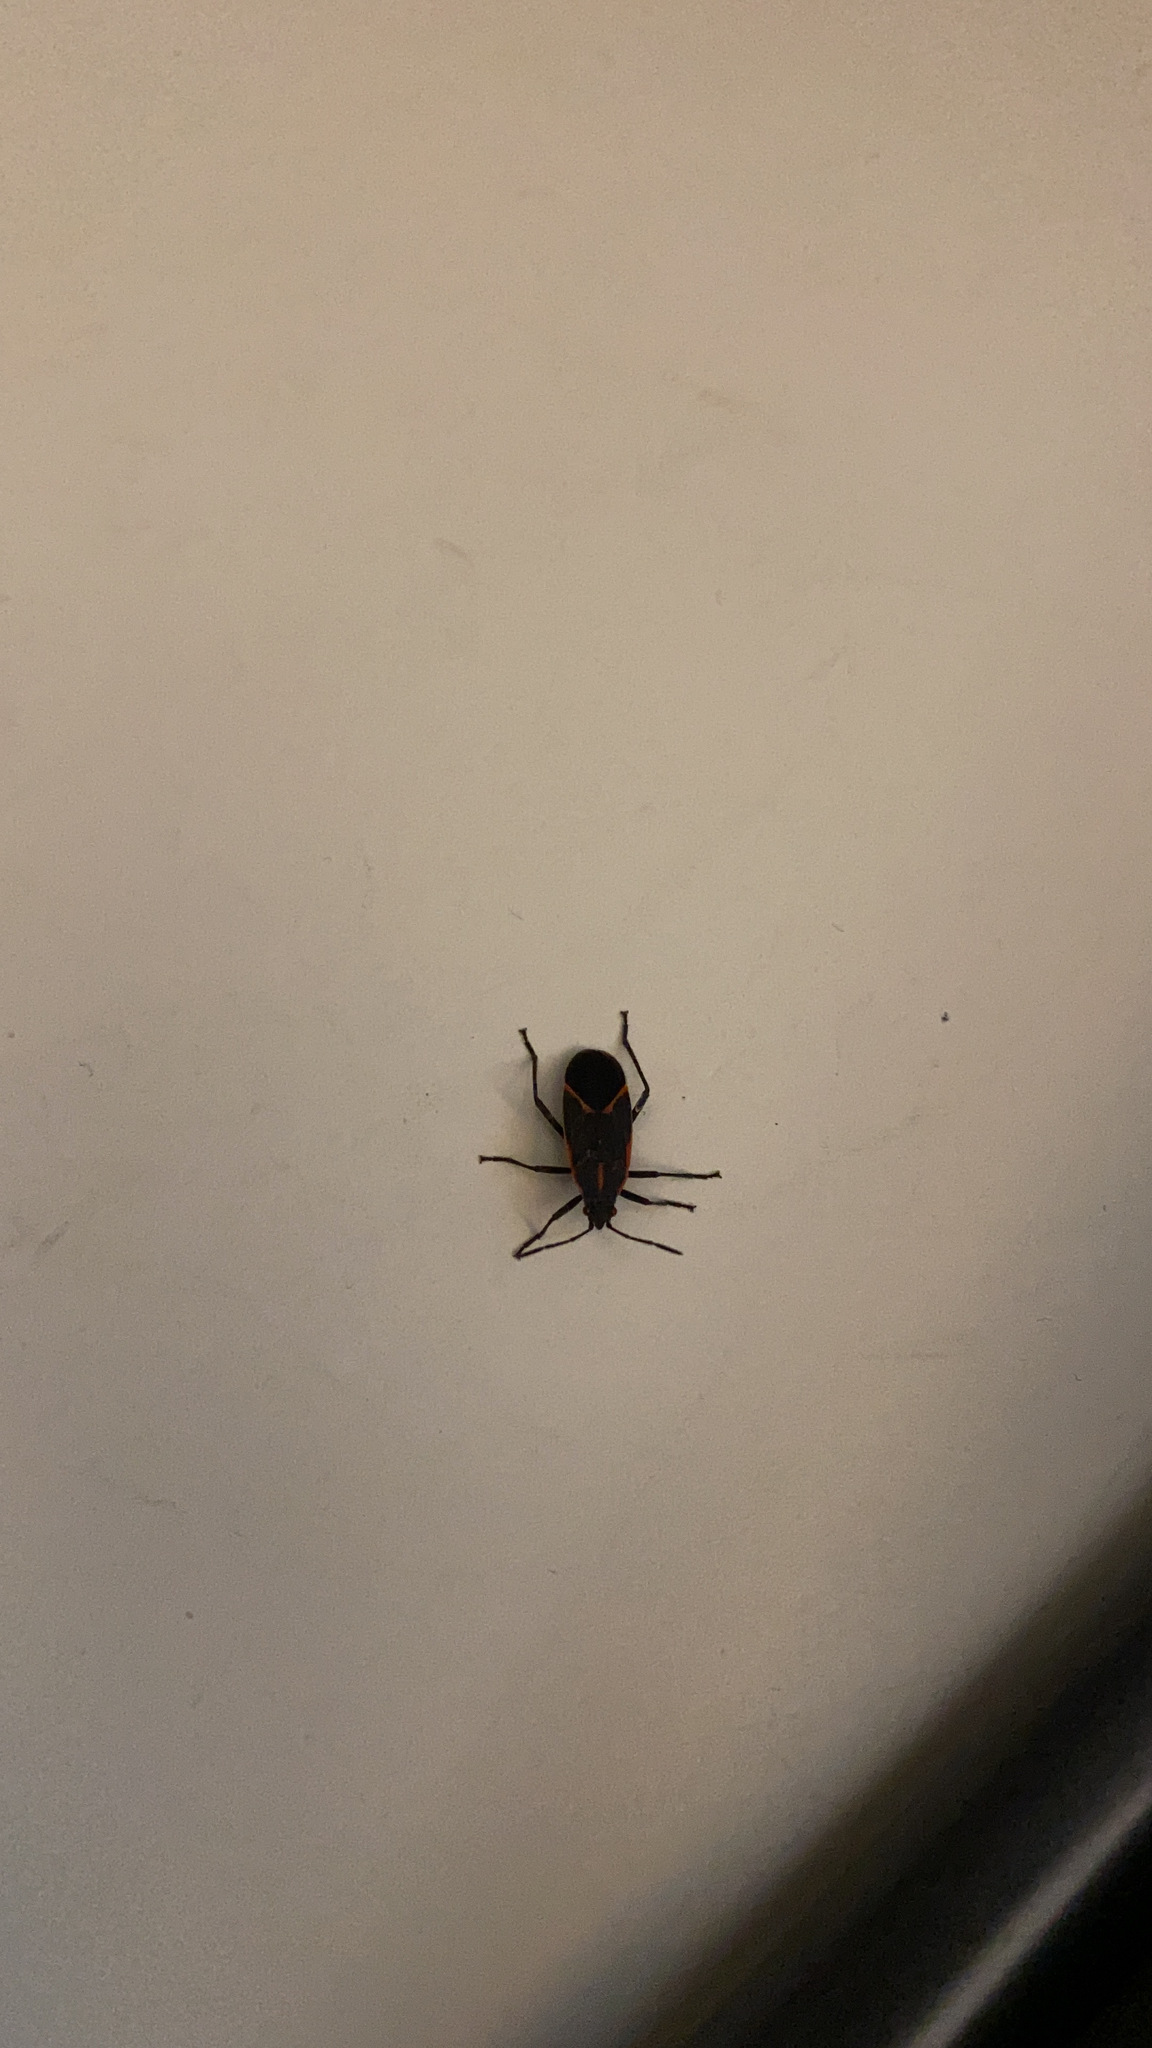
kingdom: Animalia
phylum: Arthropoda
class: Insecta
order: Hemiptera
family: Rhopalidae
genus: Boisea
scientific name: Boisea trivittata
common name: Boxelder bug
